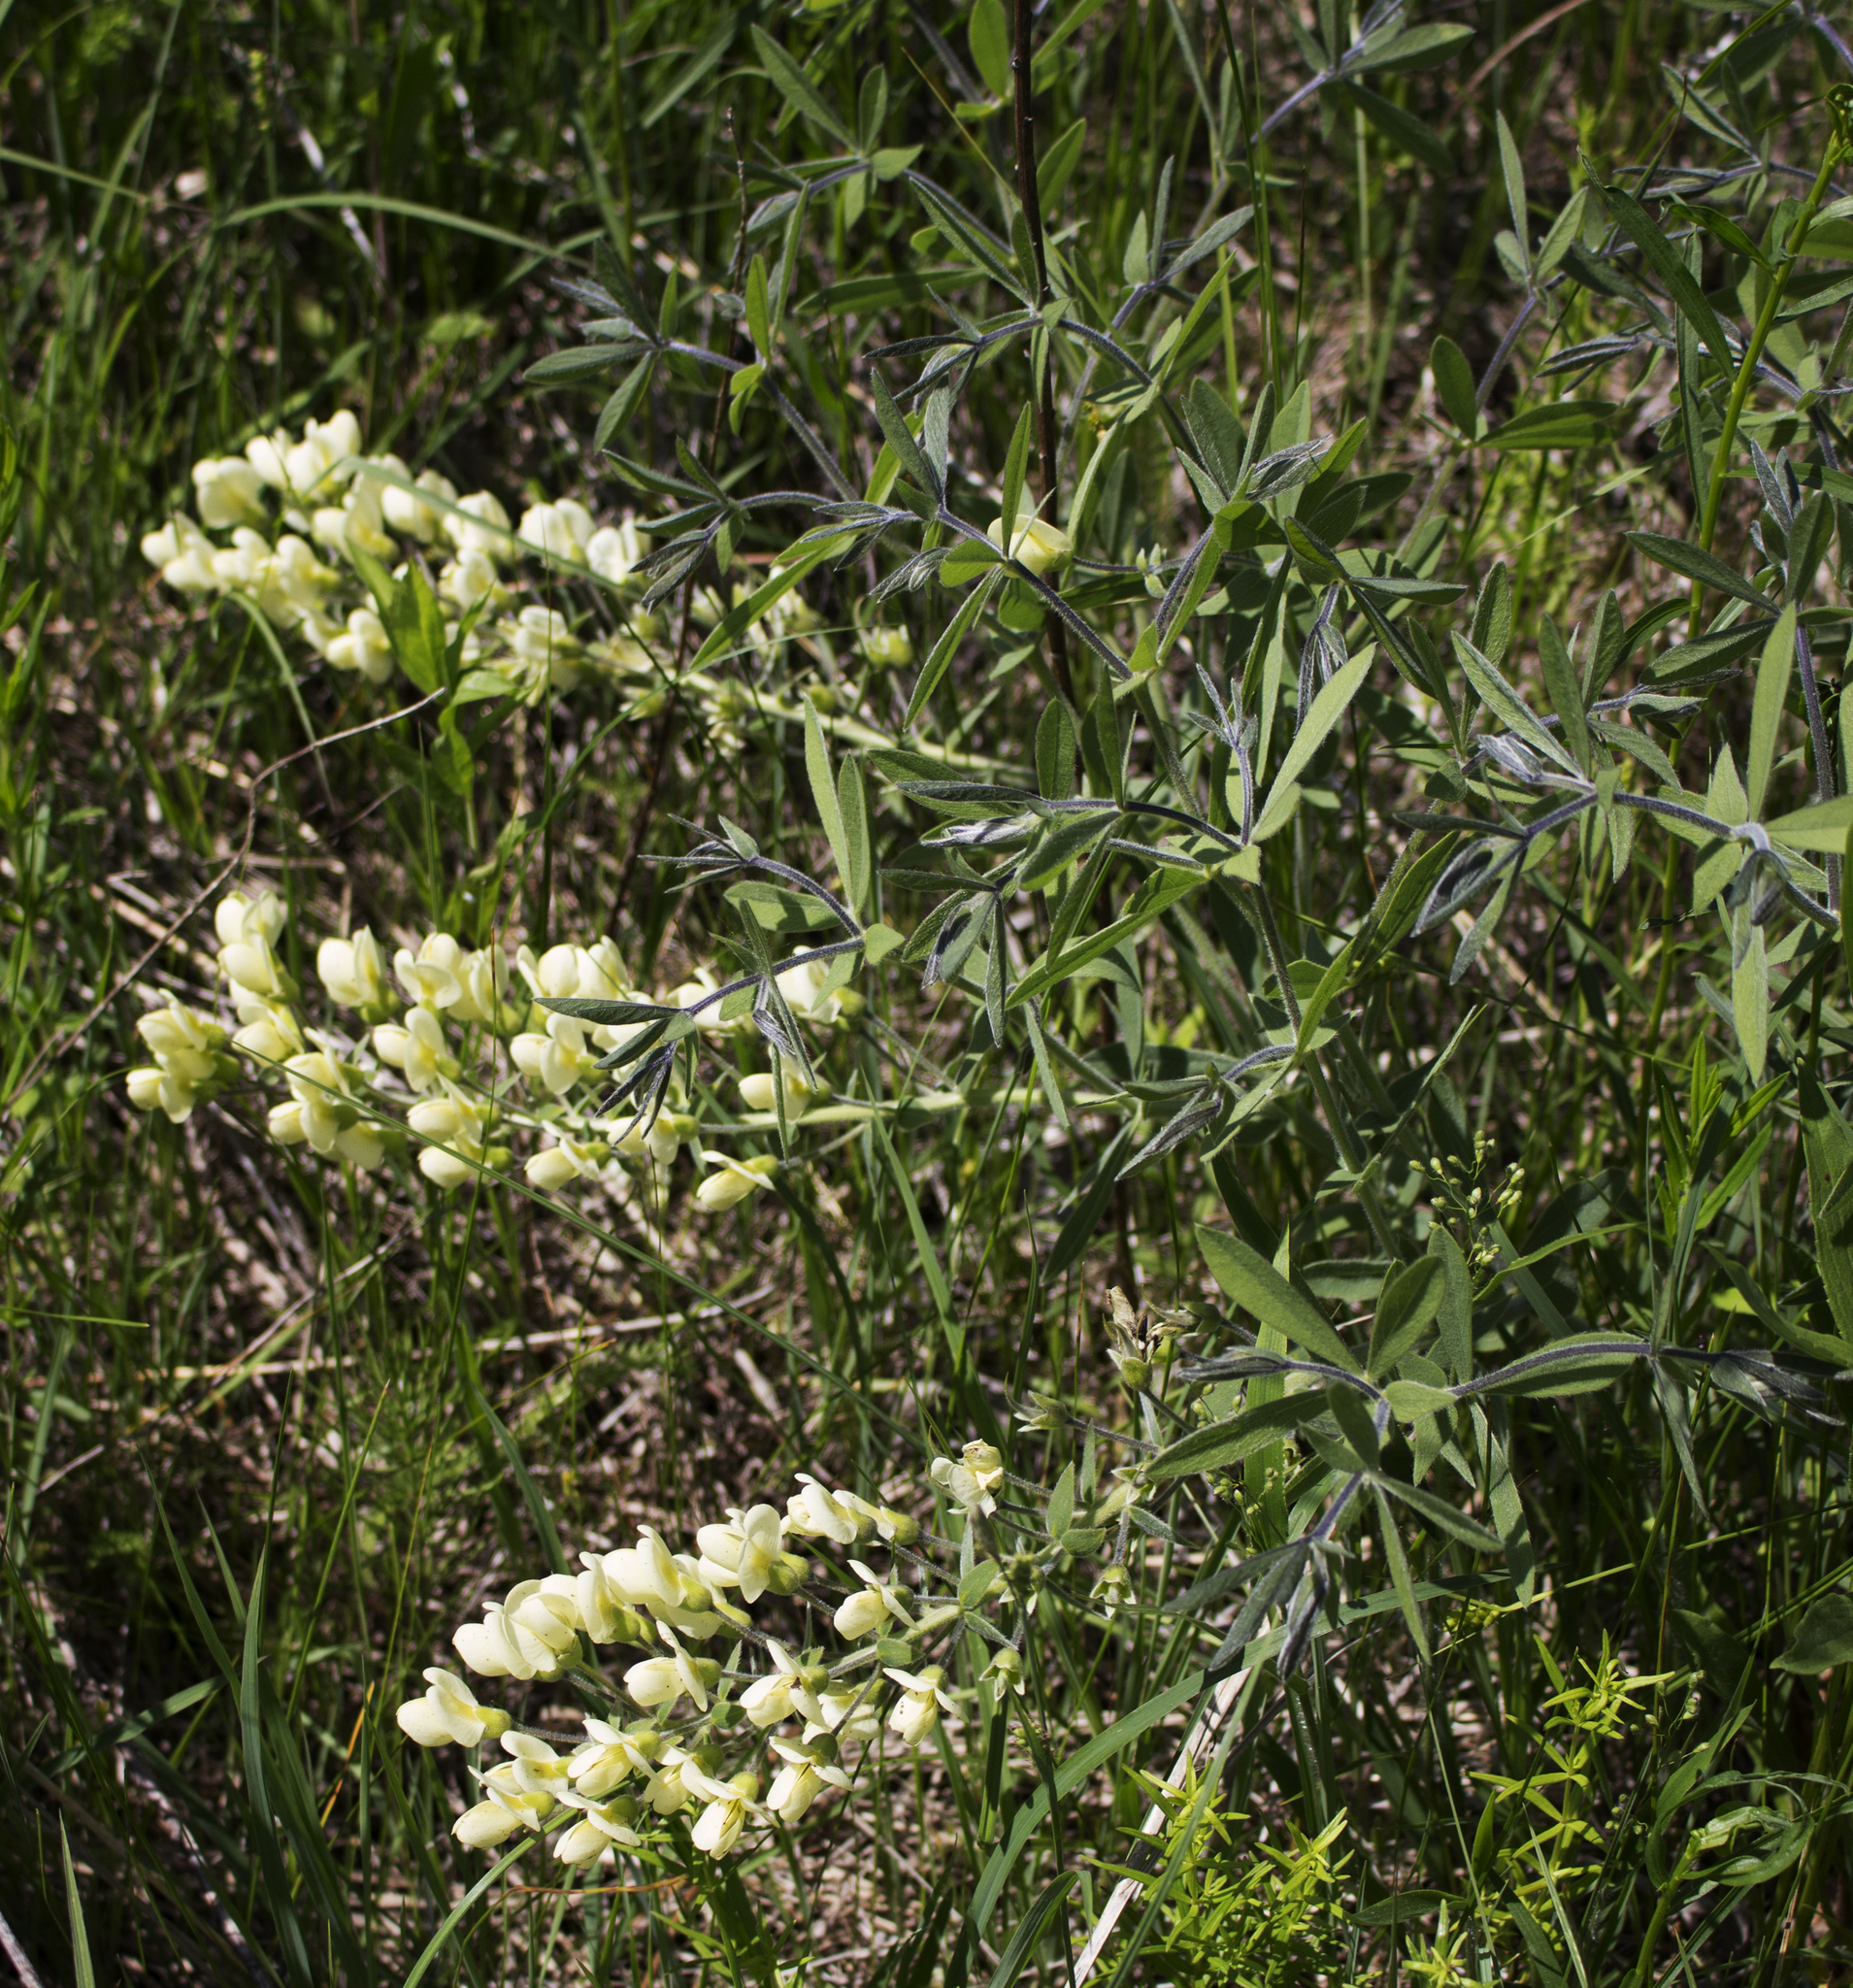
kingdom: Plantae
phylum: Tracheophyta
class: Magnoliopsida
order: Fabales
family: Fabaceae
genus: Baptisia
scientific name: Baptisia bracteata
